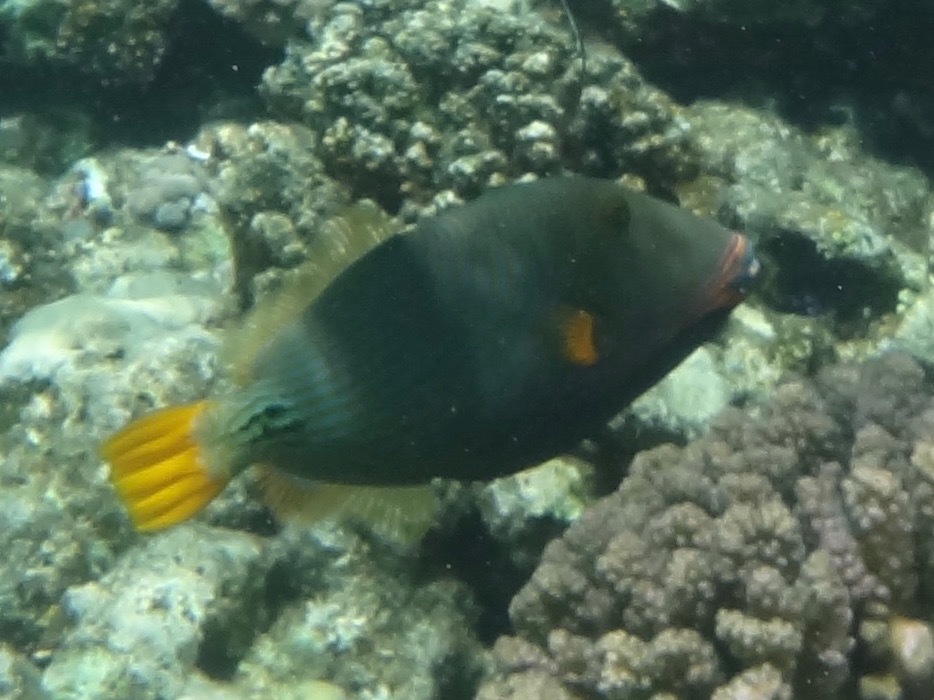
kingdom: Animalia
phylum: Chordata
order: Tetraodontiformes
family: Balistidae
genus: Balistapus
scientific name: Balistapus undulatus
